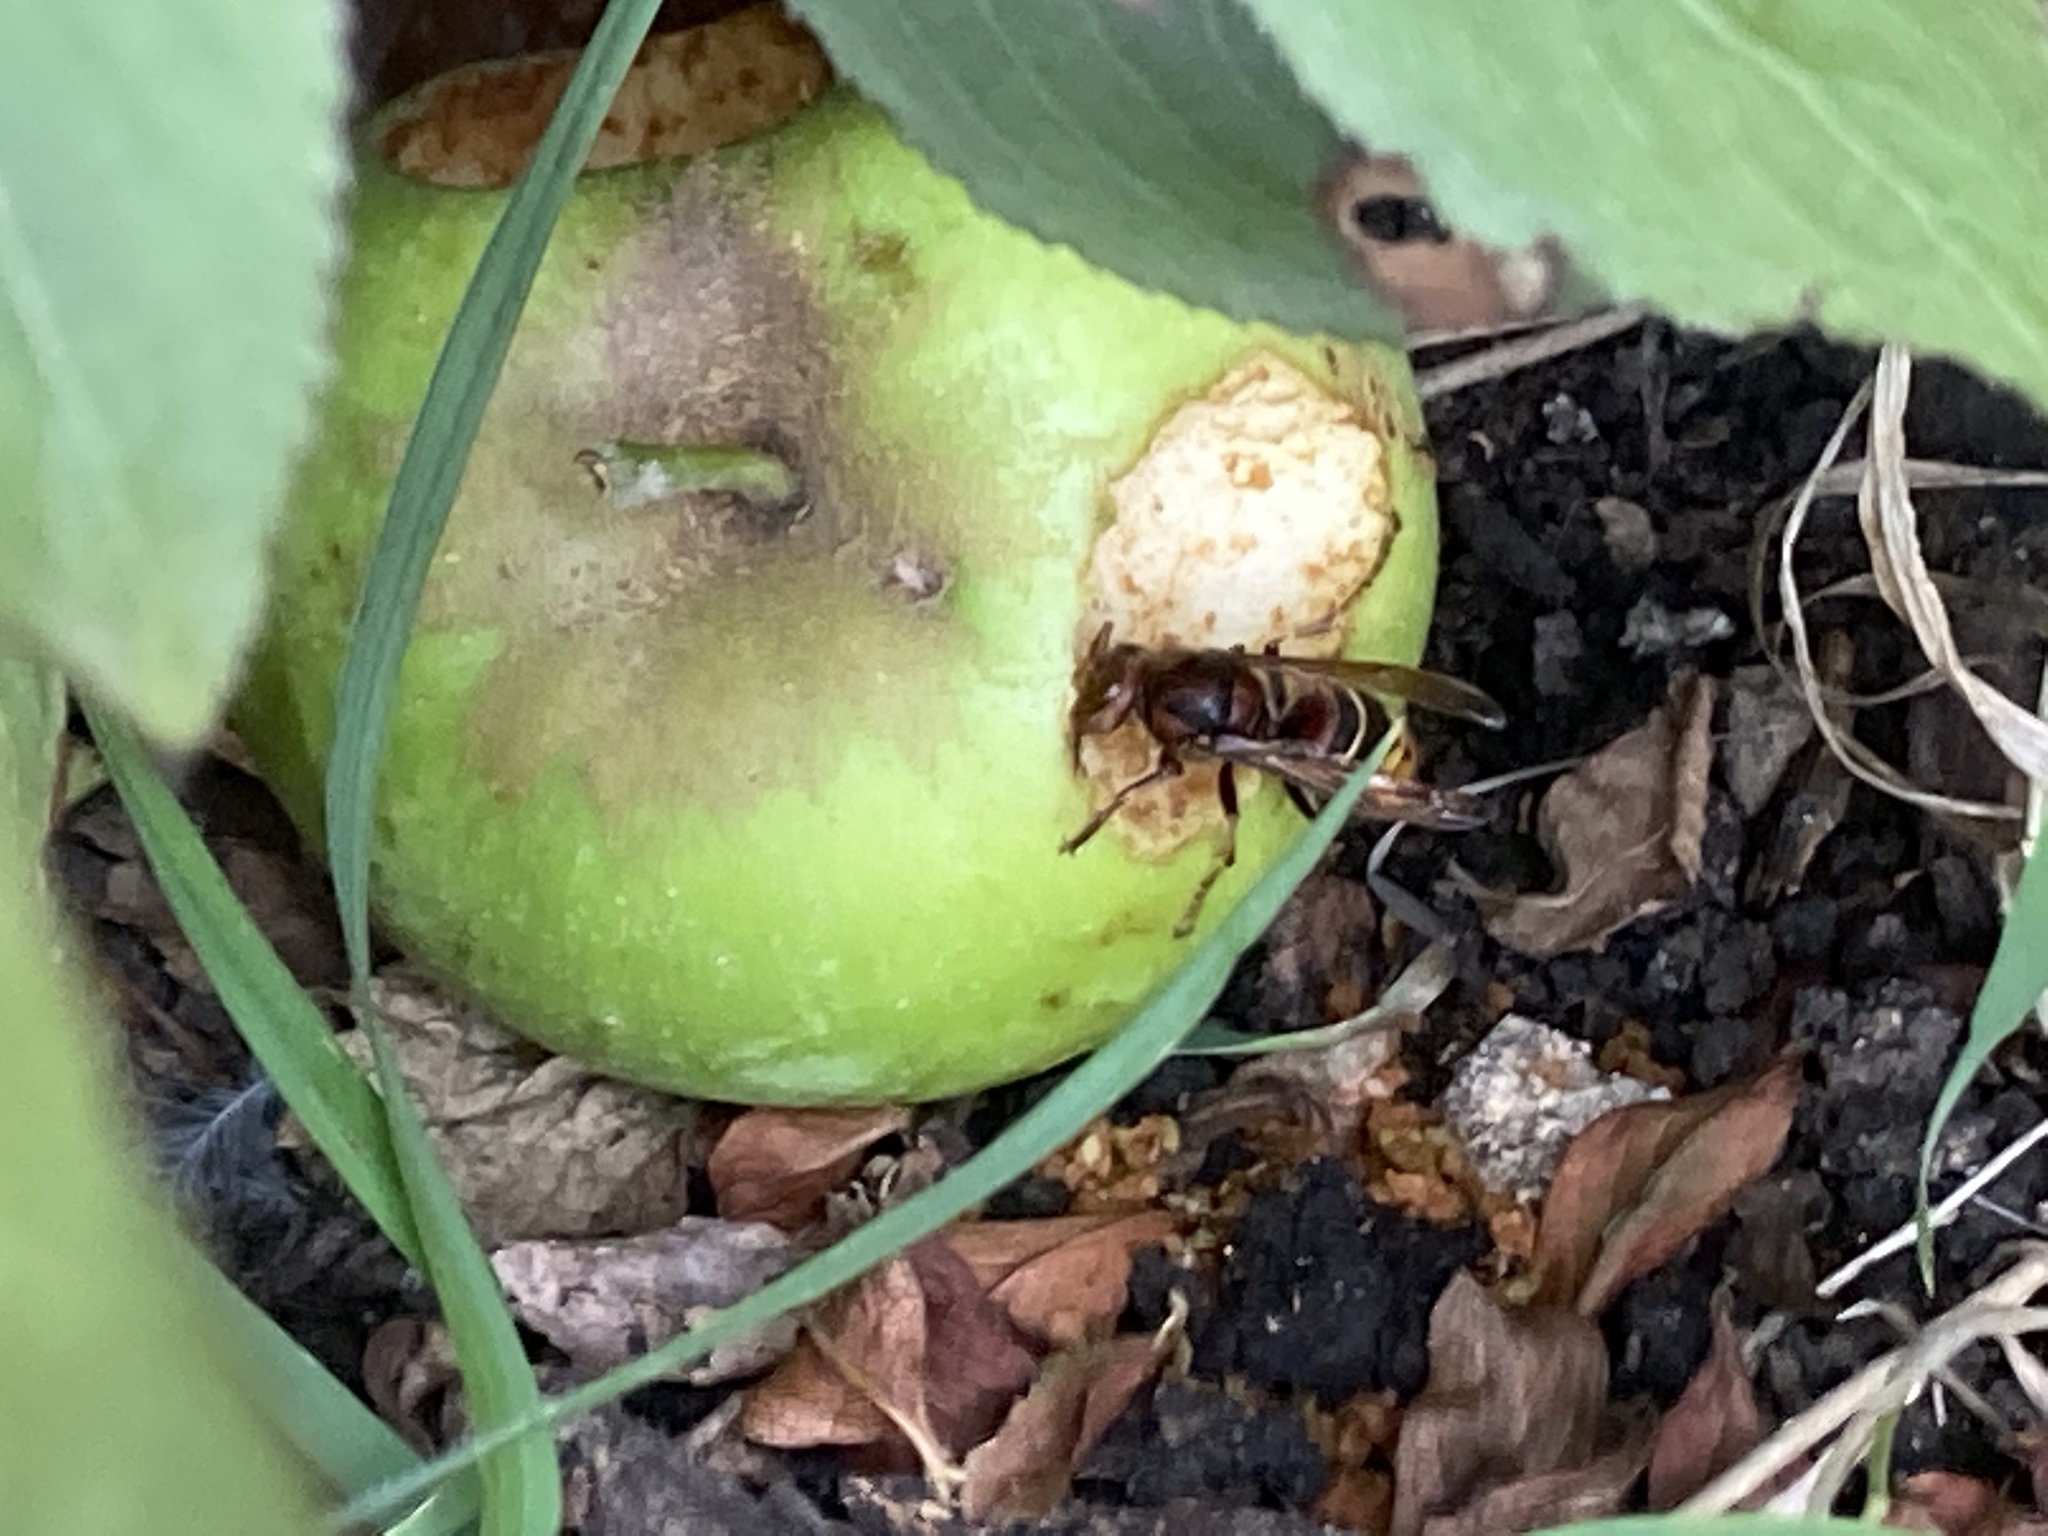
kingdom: Animalia
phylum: Arthropoda
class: Insecta
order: Hymenoptera
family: Vespidae
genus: Vespa
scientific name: Vespa crabro
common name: Hornet
